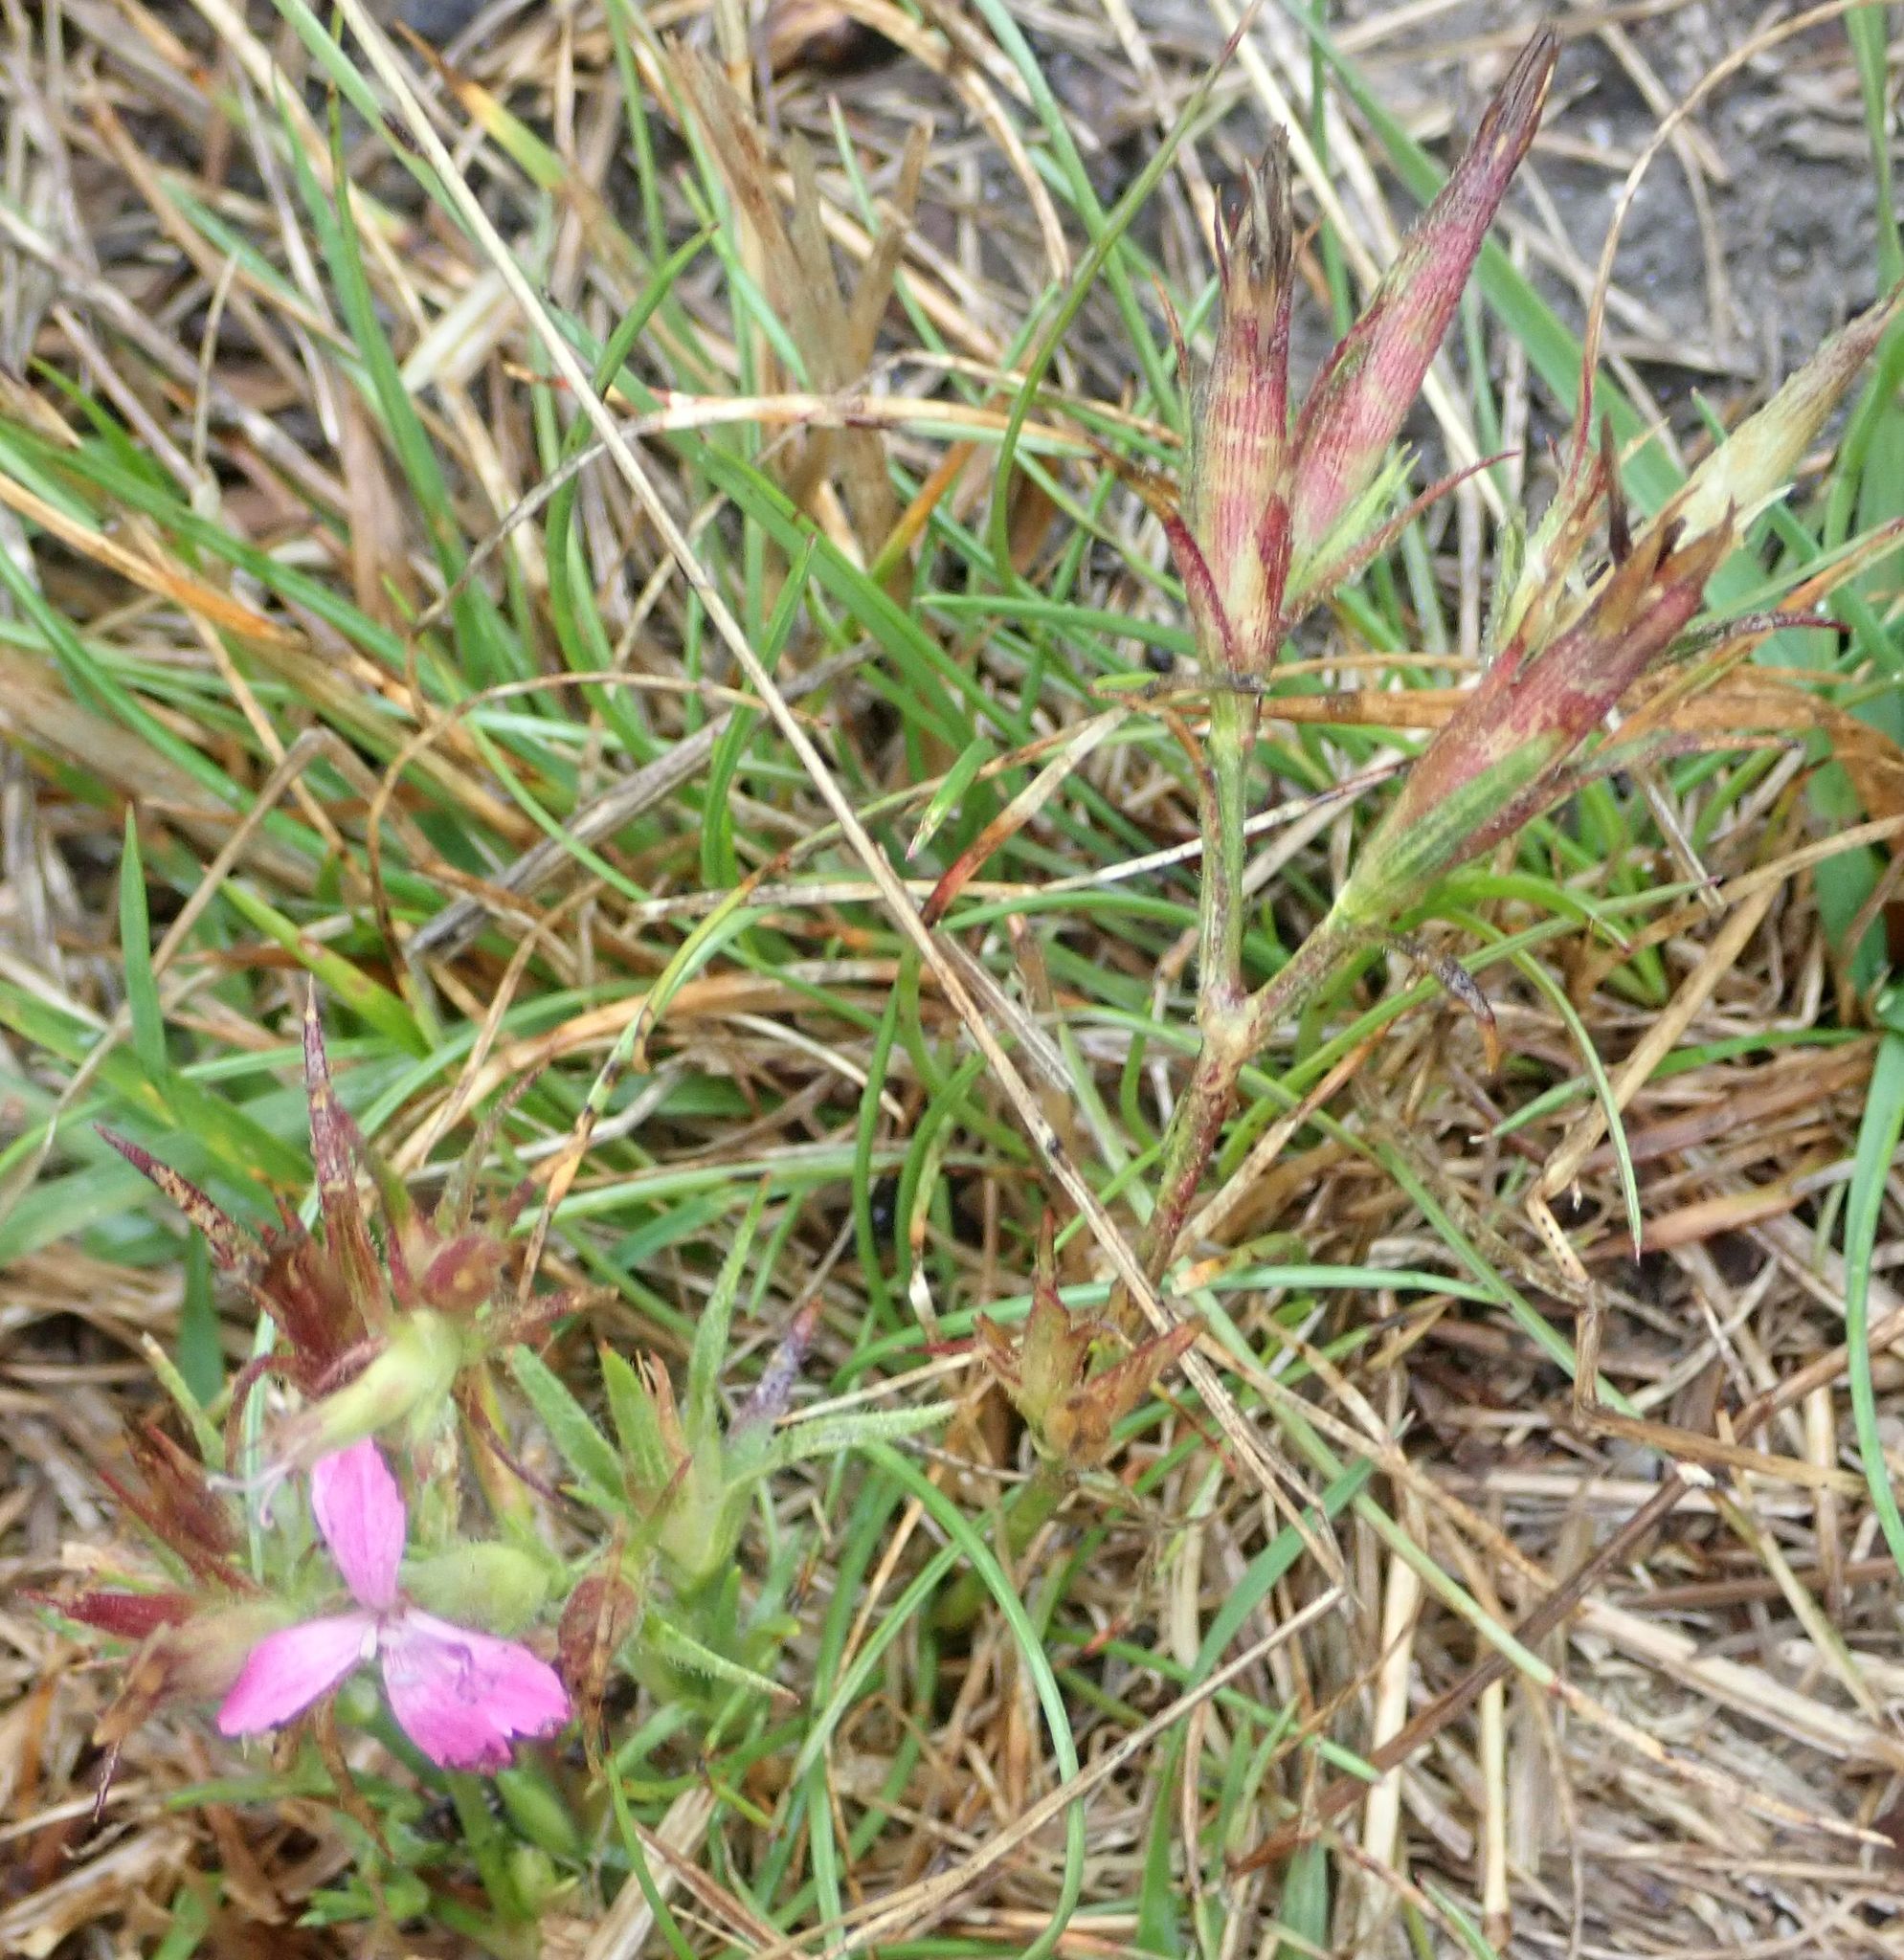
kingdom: Plantae
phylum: Tracheophyta
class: Magnoliopsida
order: Caryophyllales
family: Caryophyllaceae
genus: Dianthus
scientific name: Dianthus armeria
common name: Deptford pink
